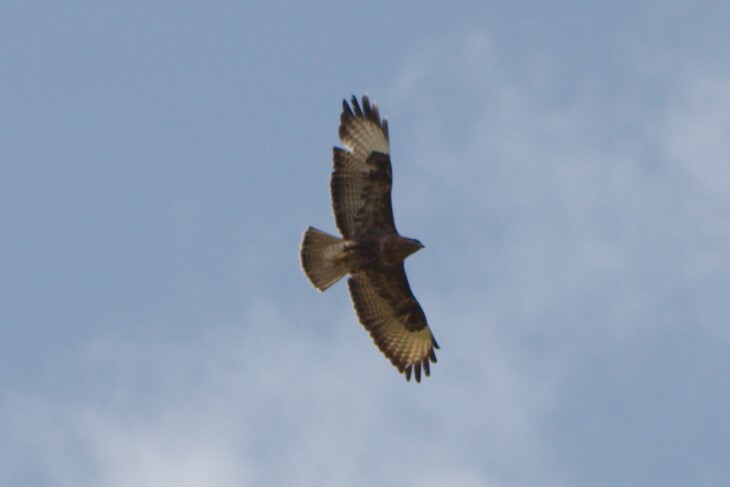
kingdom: Animalia
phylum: Chordata
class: Aves
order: Accipitriformes
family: Accipitridae
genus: Buteo
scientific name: Buteo buteo
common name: Common buzzard
